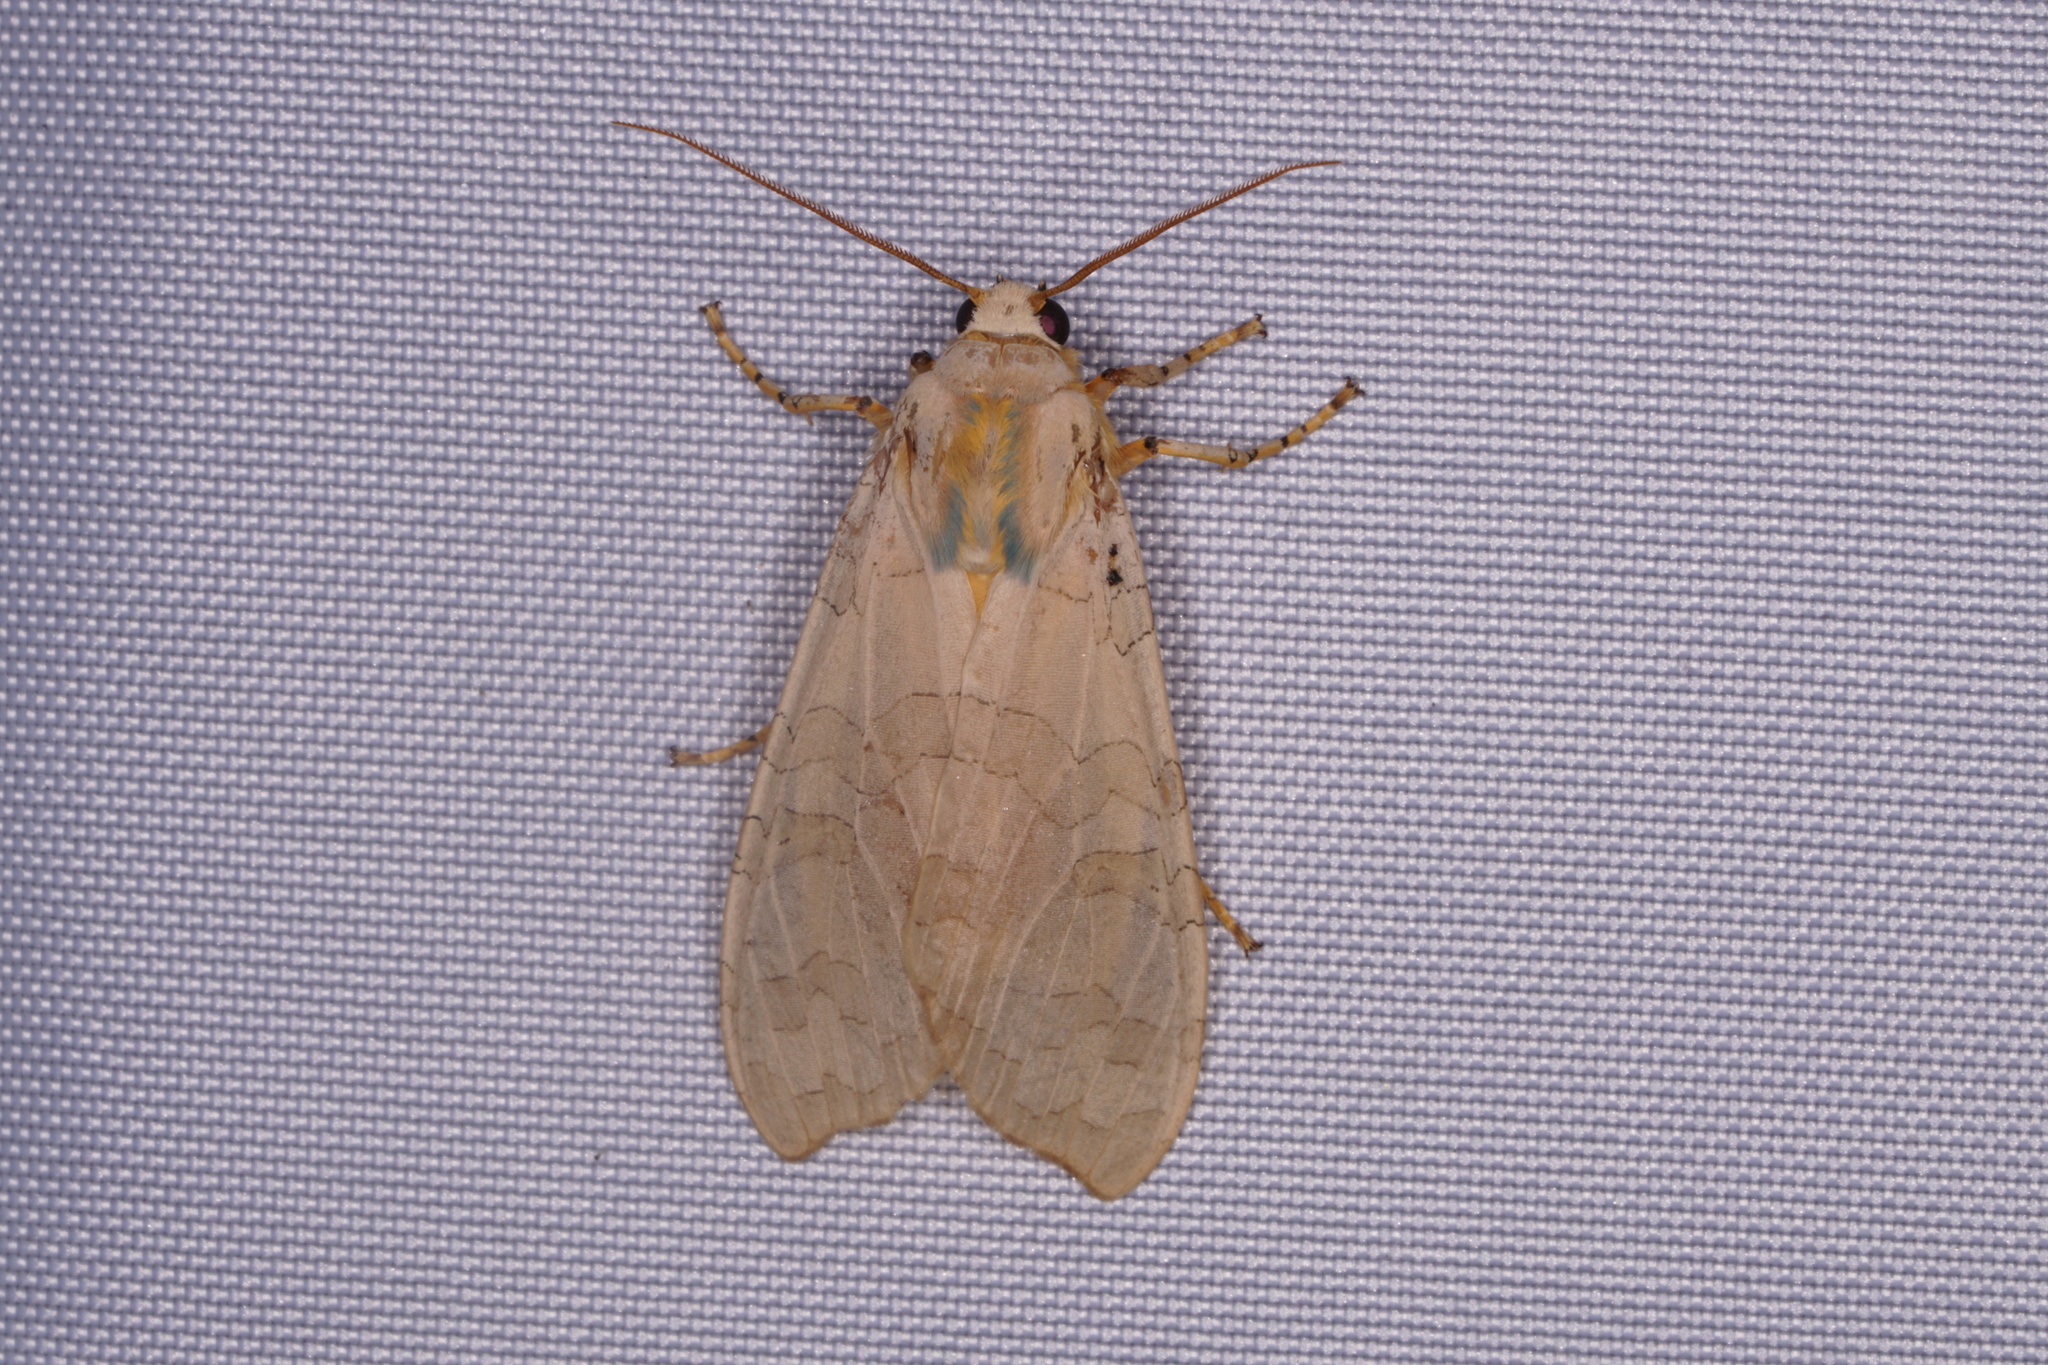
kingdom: Animalia
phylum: Arthropoda
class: Insecta
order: Lepidoptera
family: Erebidae
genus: Halysidota
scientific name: Halysidota
